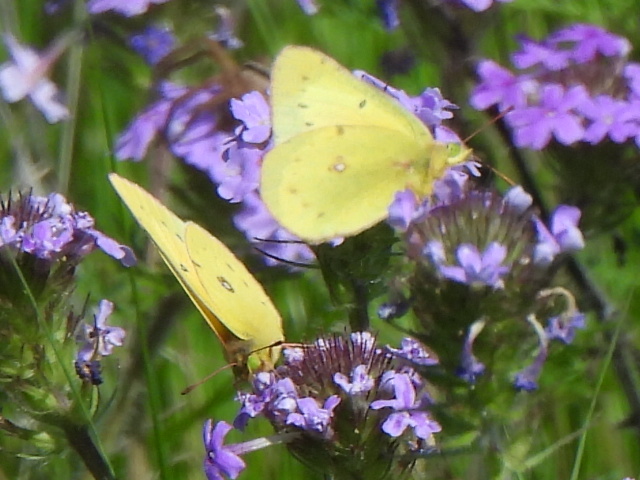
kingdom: Animalia
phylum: Arthropoda
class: Insecta
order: Lepidoptera
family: Pieridae
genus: Colias
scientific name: Colias eurytheme
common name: Alfalfa butterfly
